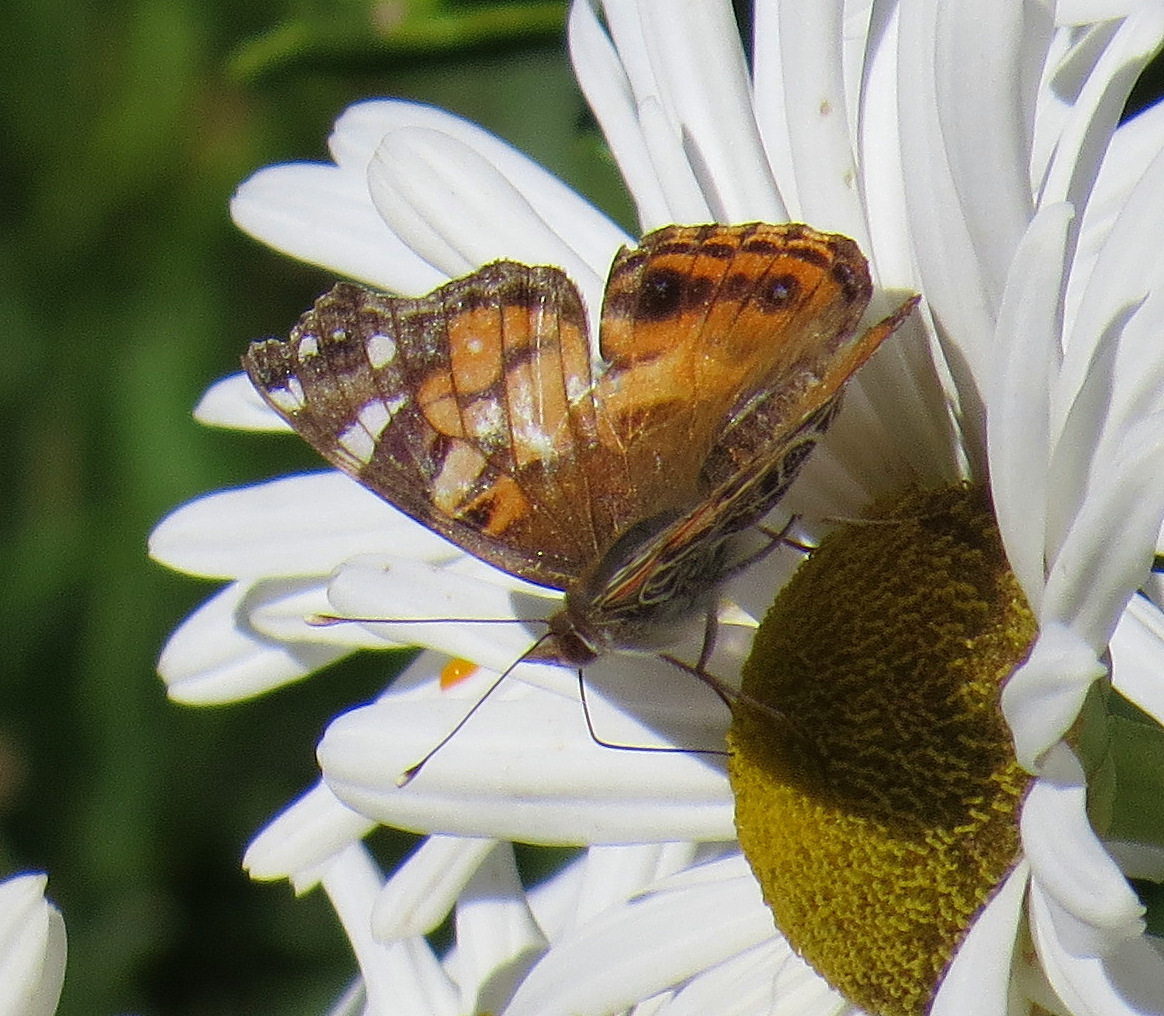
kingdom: Animalia
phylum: Arthropoda
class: Insecta
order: Lepidoptera
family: Nymphalidae
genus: Vanessa
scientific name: Vanessa virginiensis
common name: American lady
